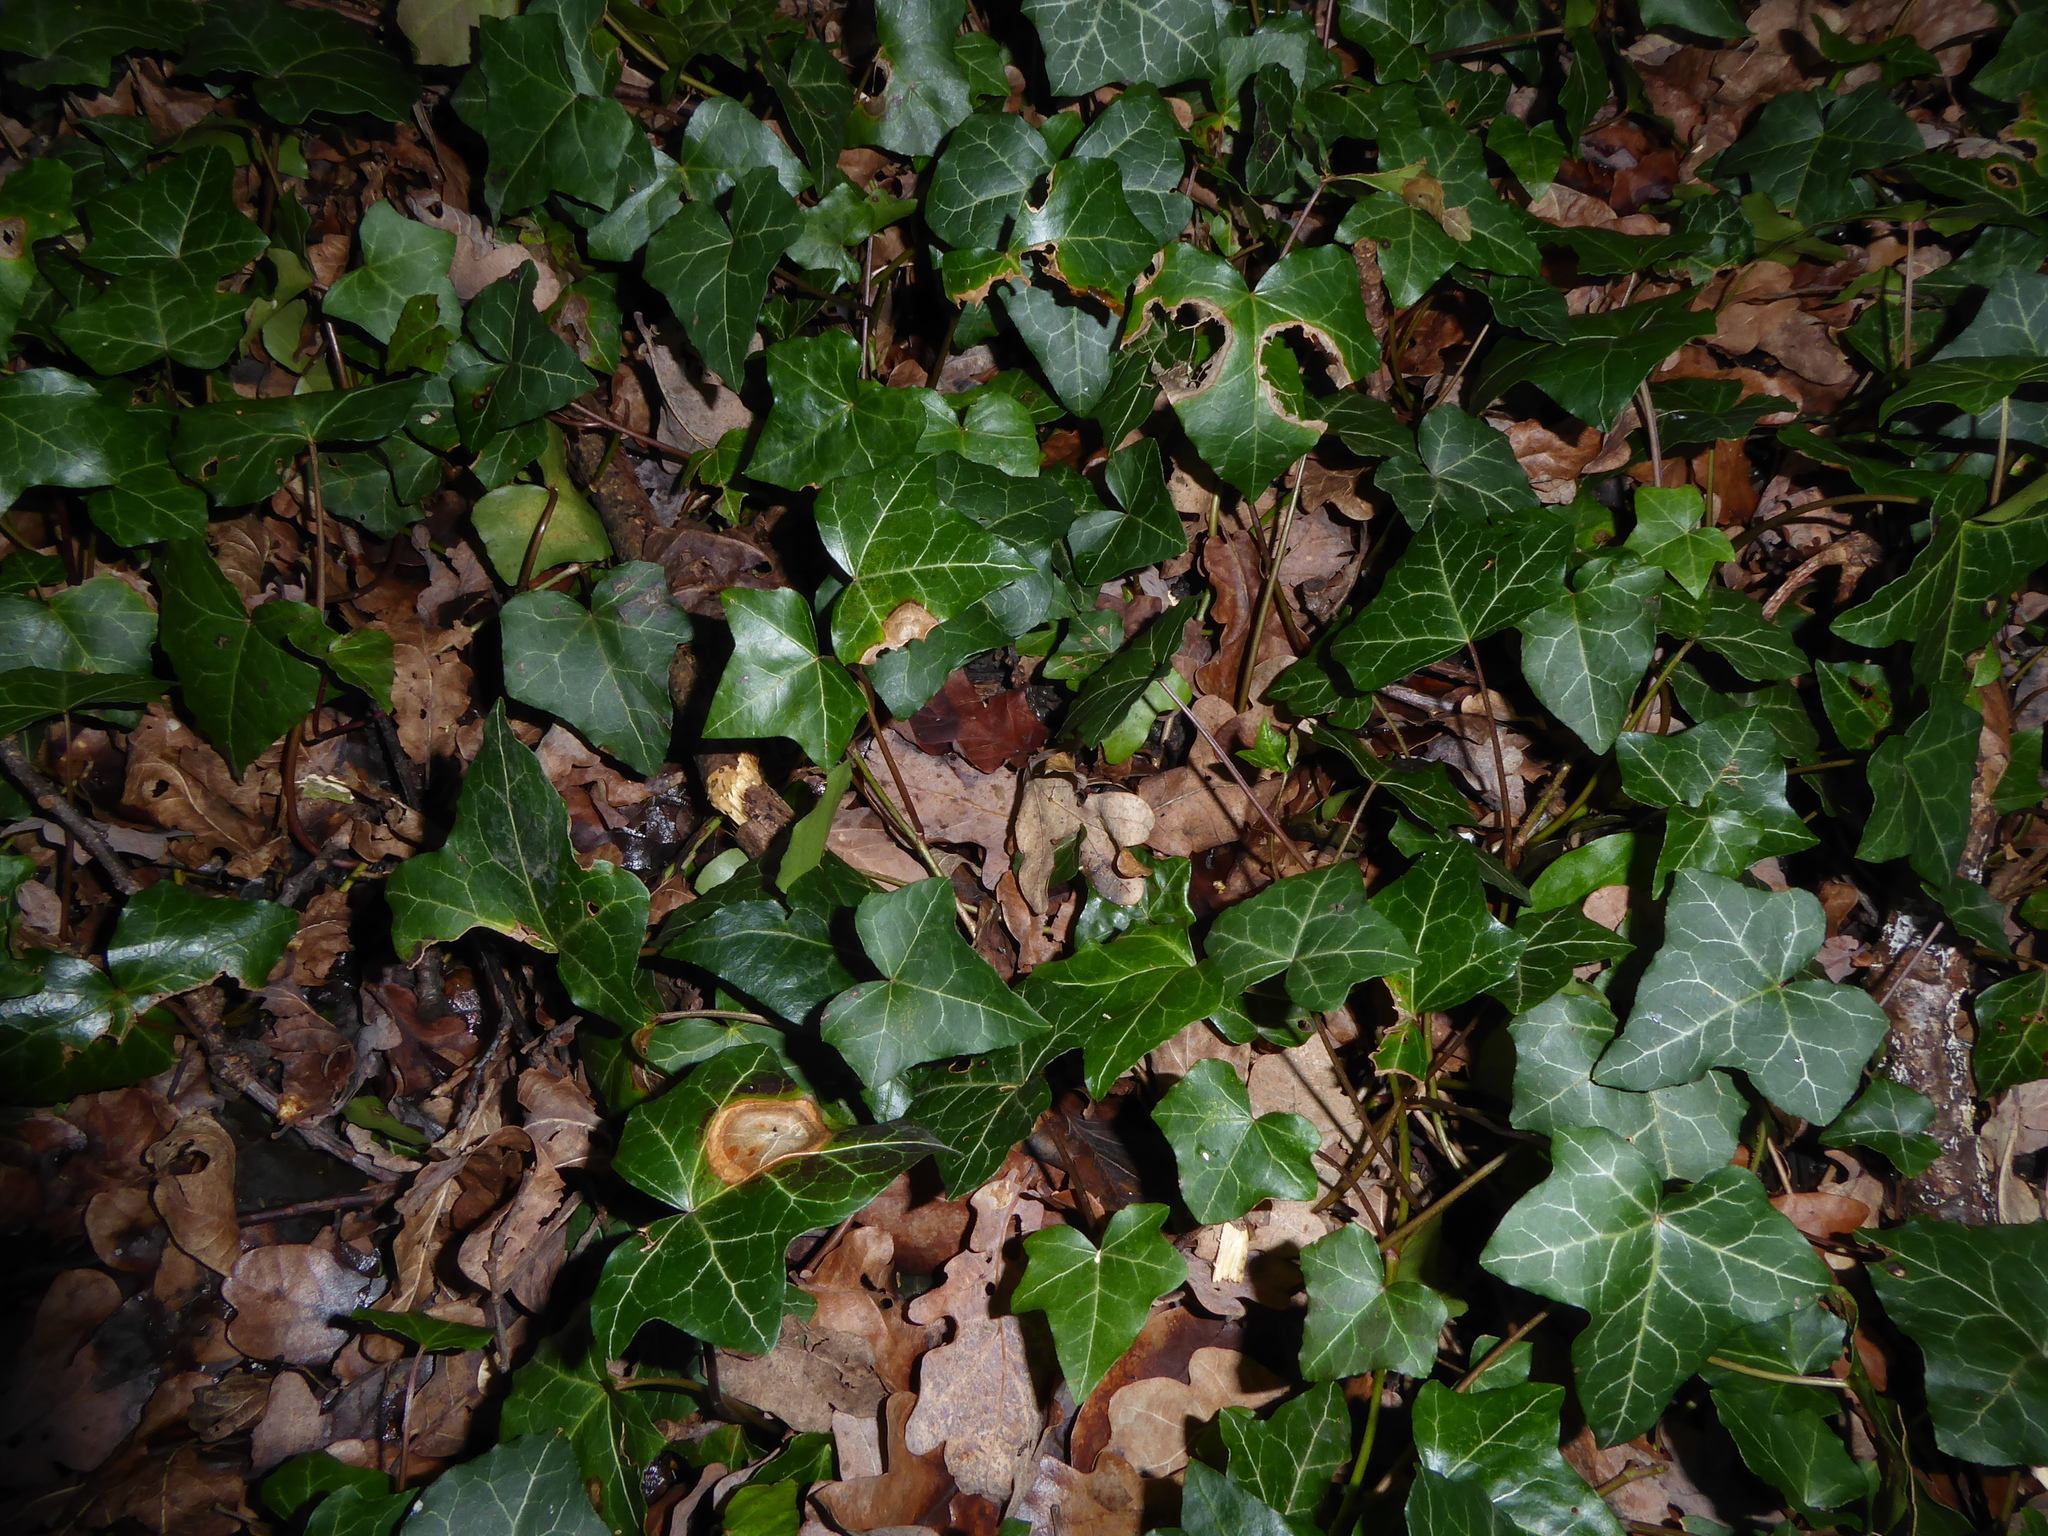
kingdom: Fungi
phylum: Ascomycota
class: Dothideomycetes
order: Pleosporales
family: Didymellaceae
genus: Boeremia
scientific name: Boeremia hedericola
